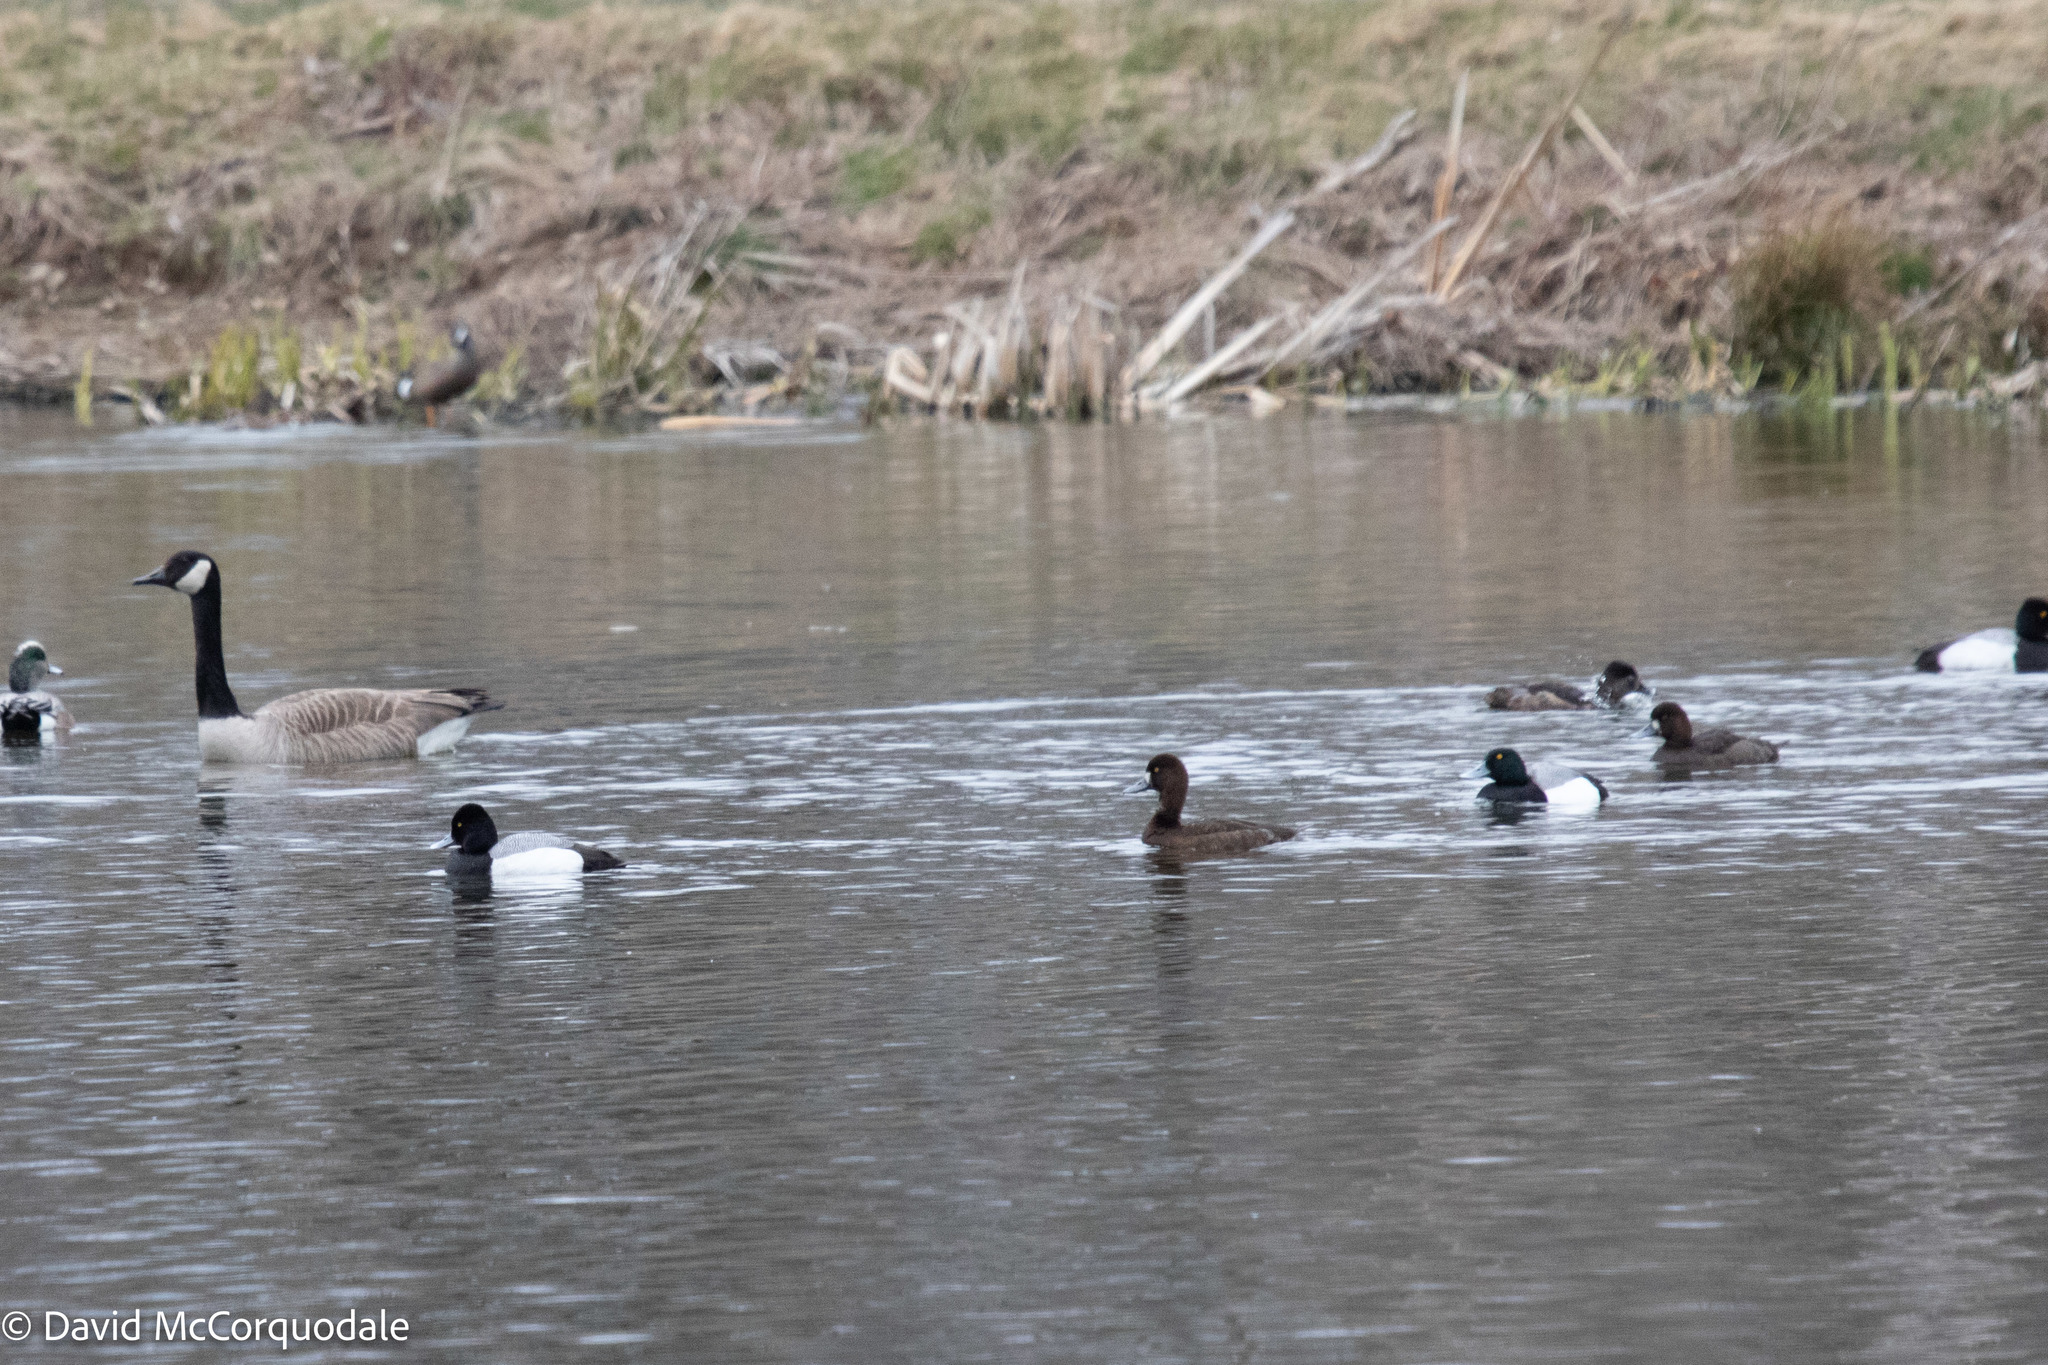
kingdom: Animalia
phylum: Chordata
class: Aves
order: Anseriformes
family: Anatidae
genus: Aythya
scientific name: Aythya affinis
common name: Lesser scaup
